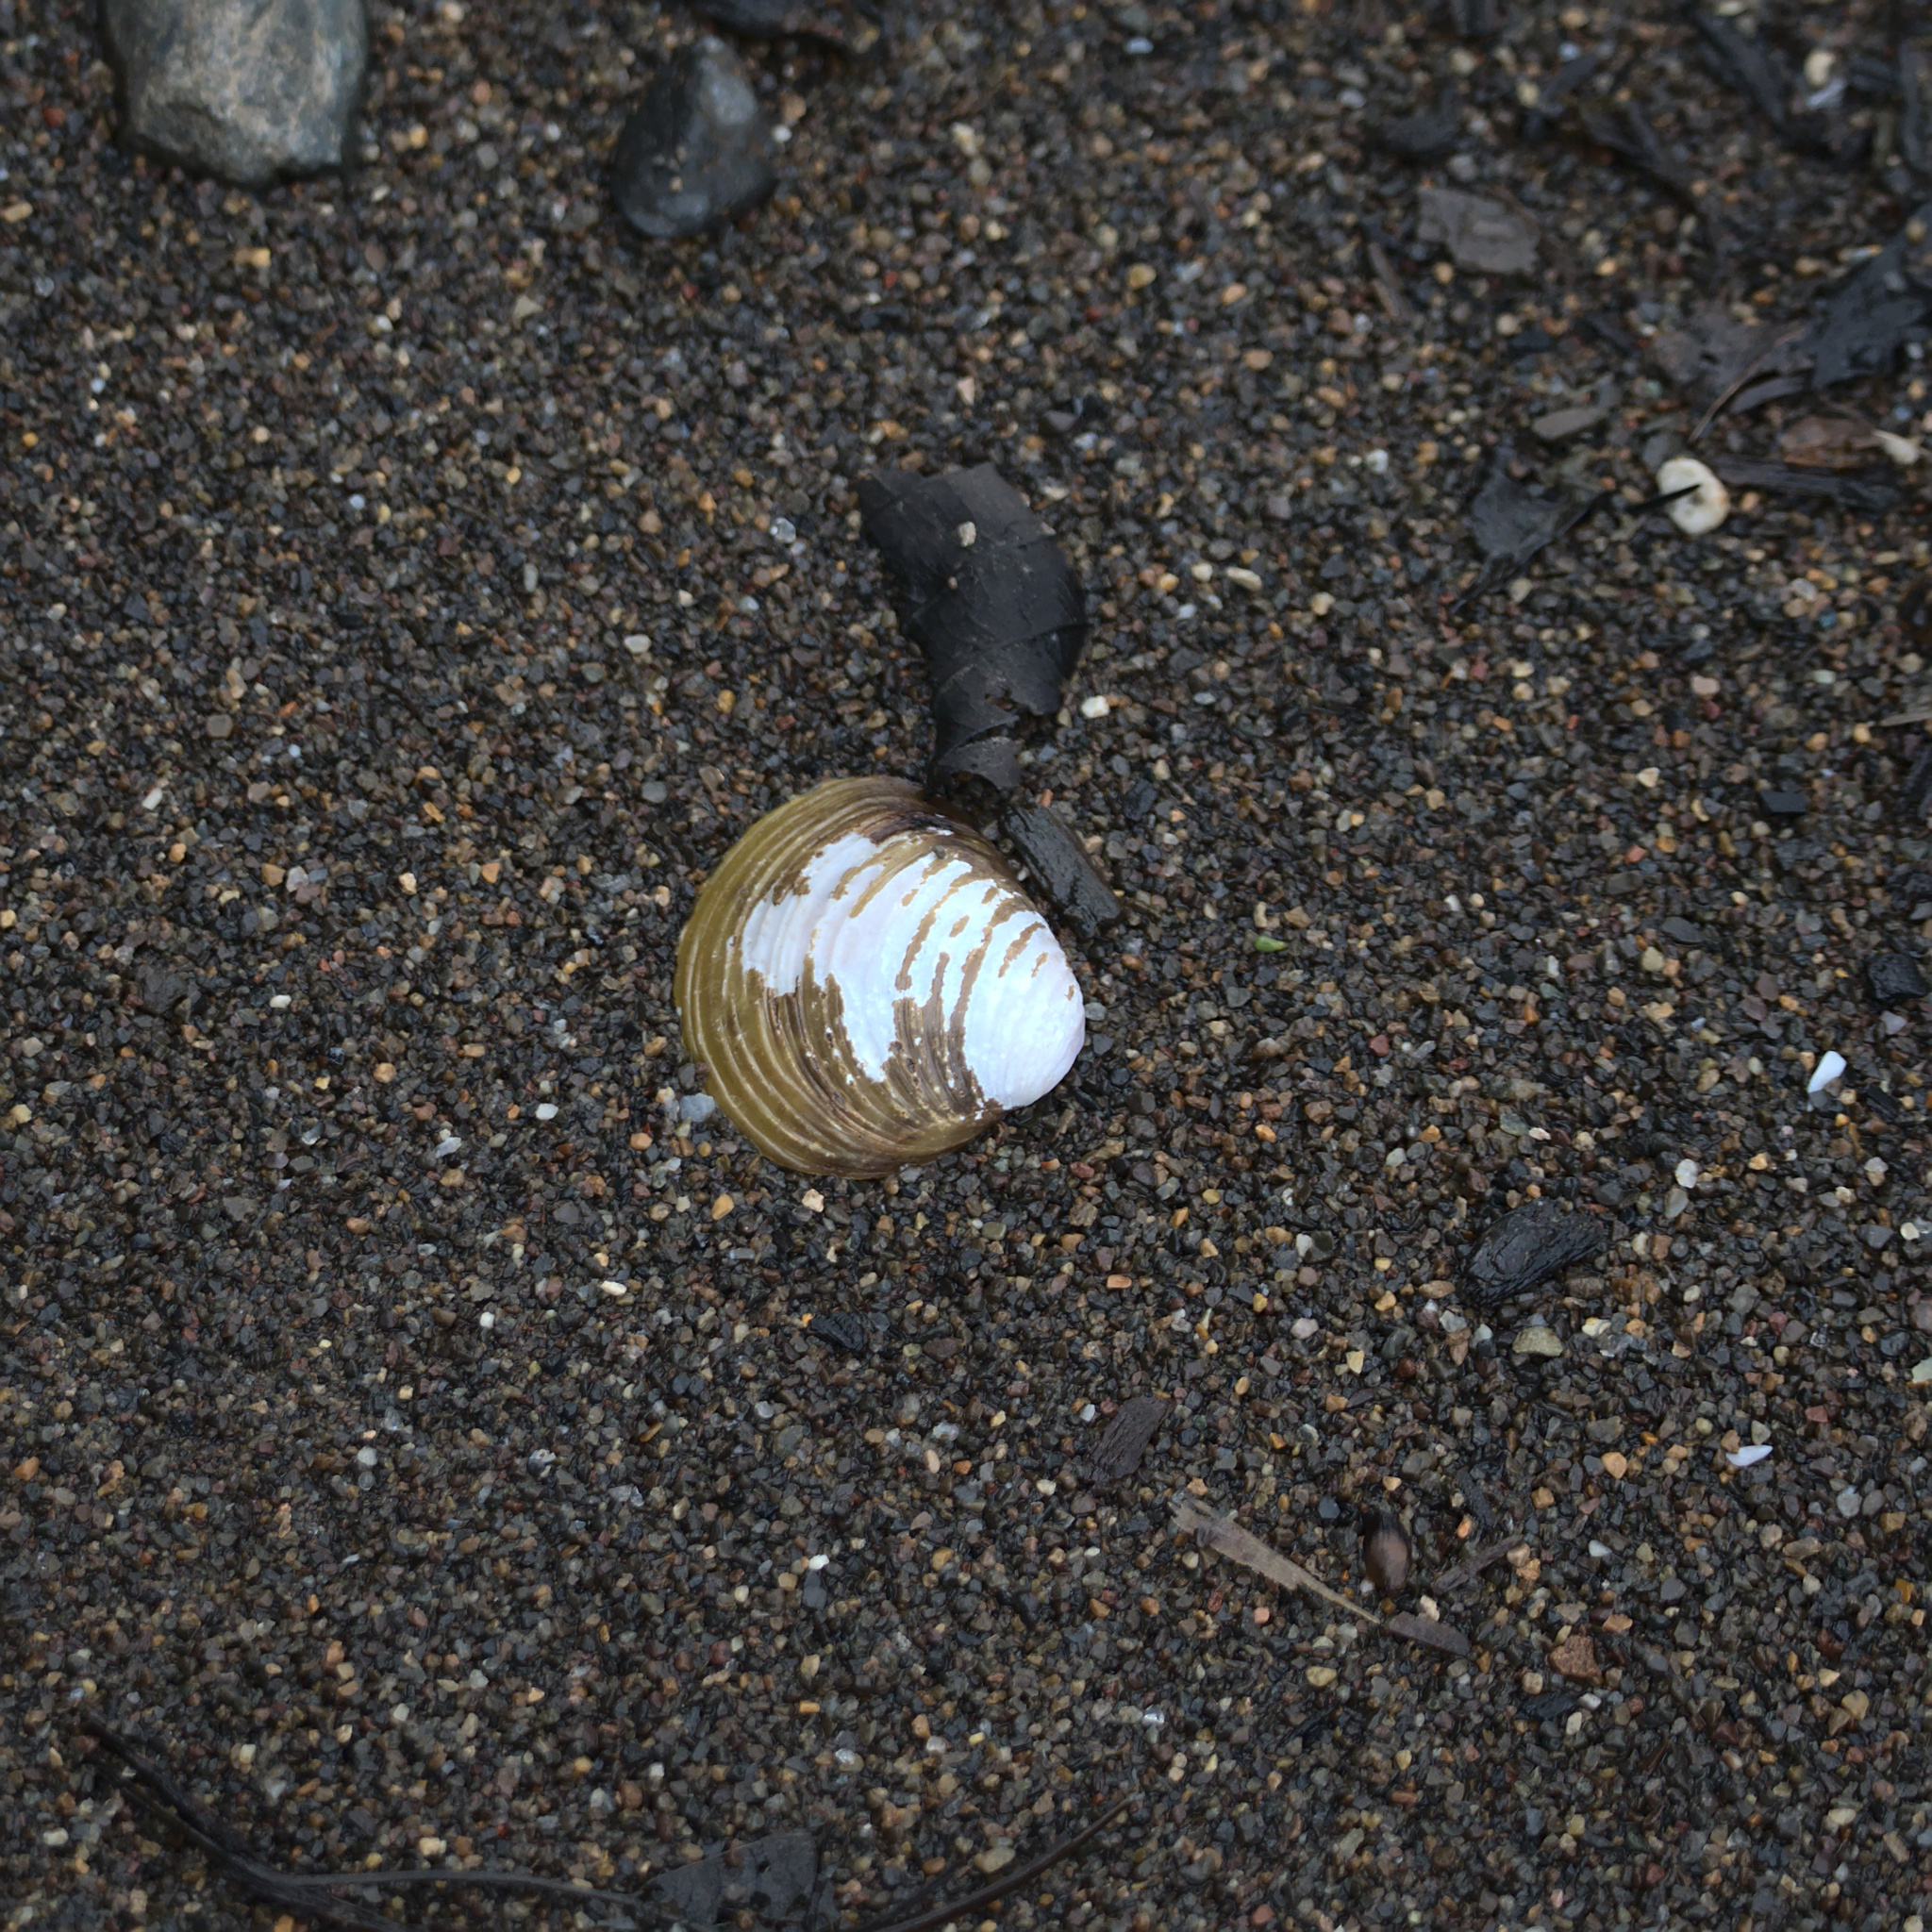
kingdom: Animalia
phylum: Mollusca
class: Bivalvia
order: Venerida
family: Cyrenidae
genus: Corbicula
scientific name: Corbicula fluminea
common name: Asian clam
